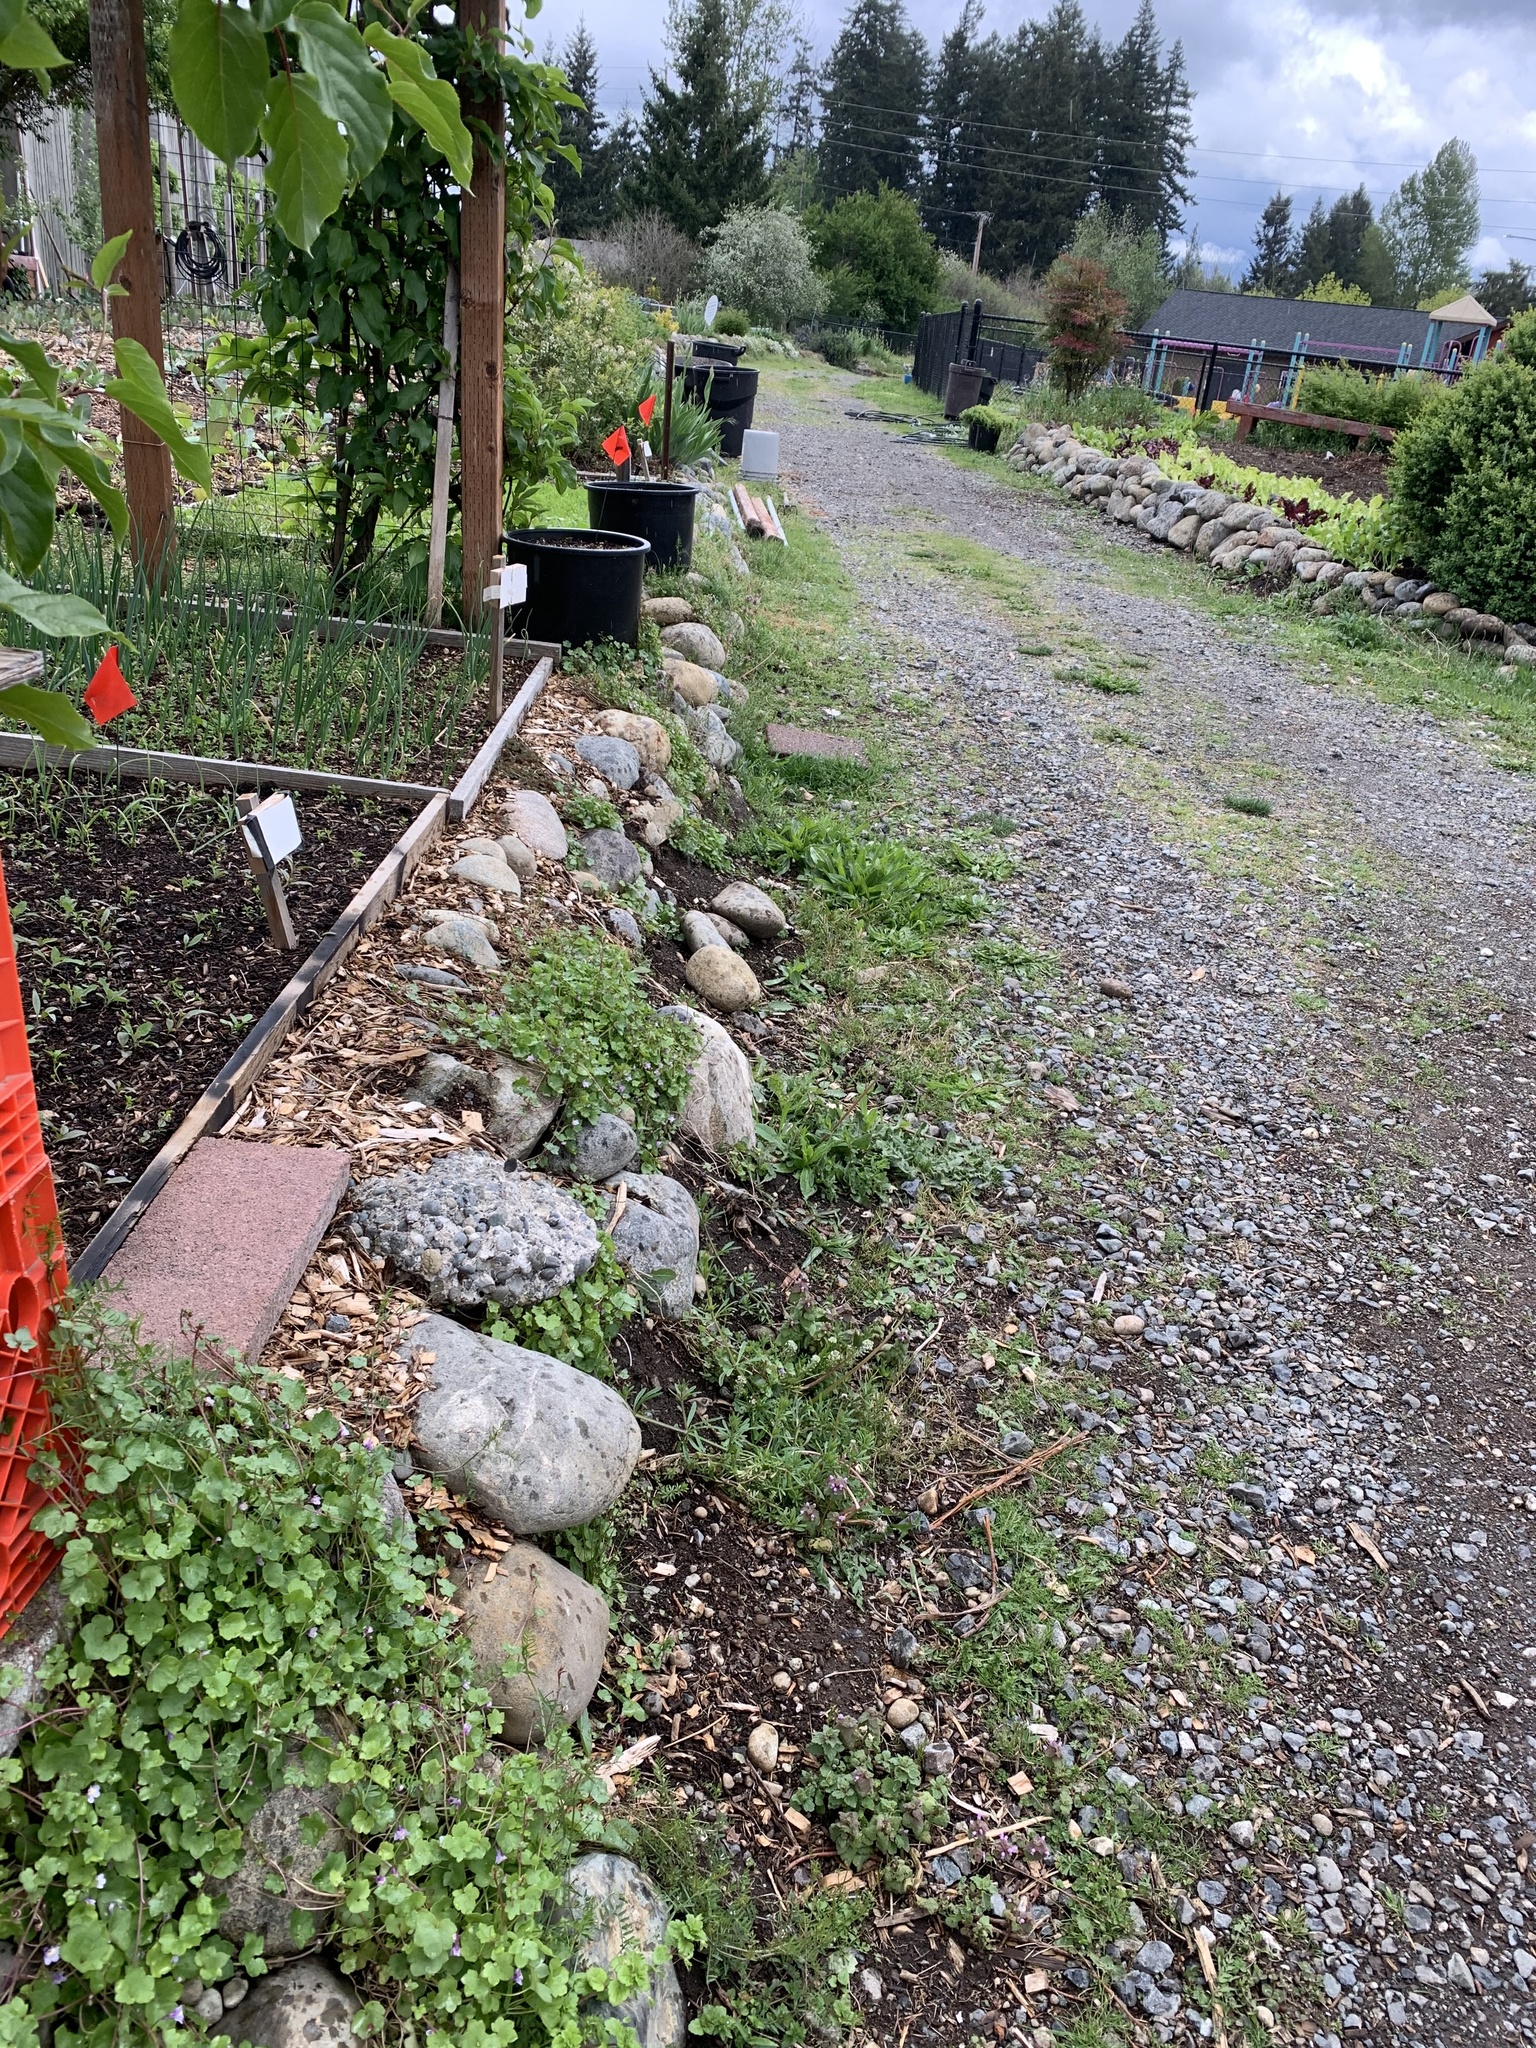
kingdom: Plantae
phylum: Tracheophyta
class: Magnoliopsida
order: Lamiales
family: Plantaginaceae
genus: Cymbalaria
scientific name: Cymbalaria muralis
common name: Ivy-leaved toadflax
